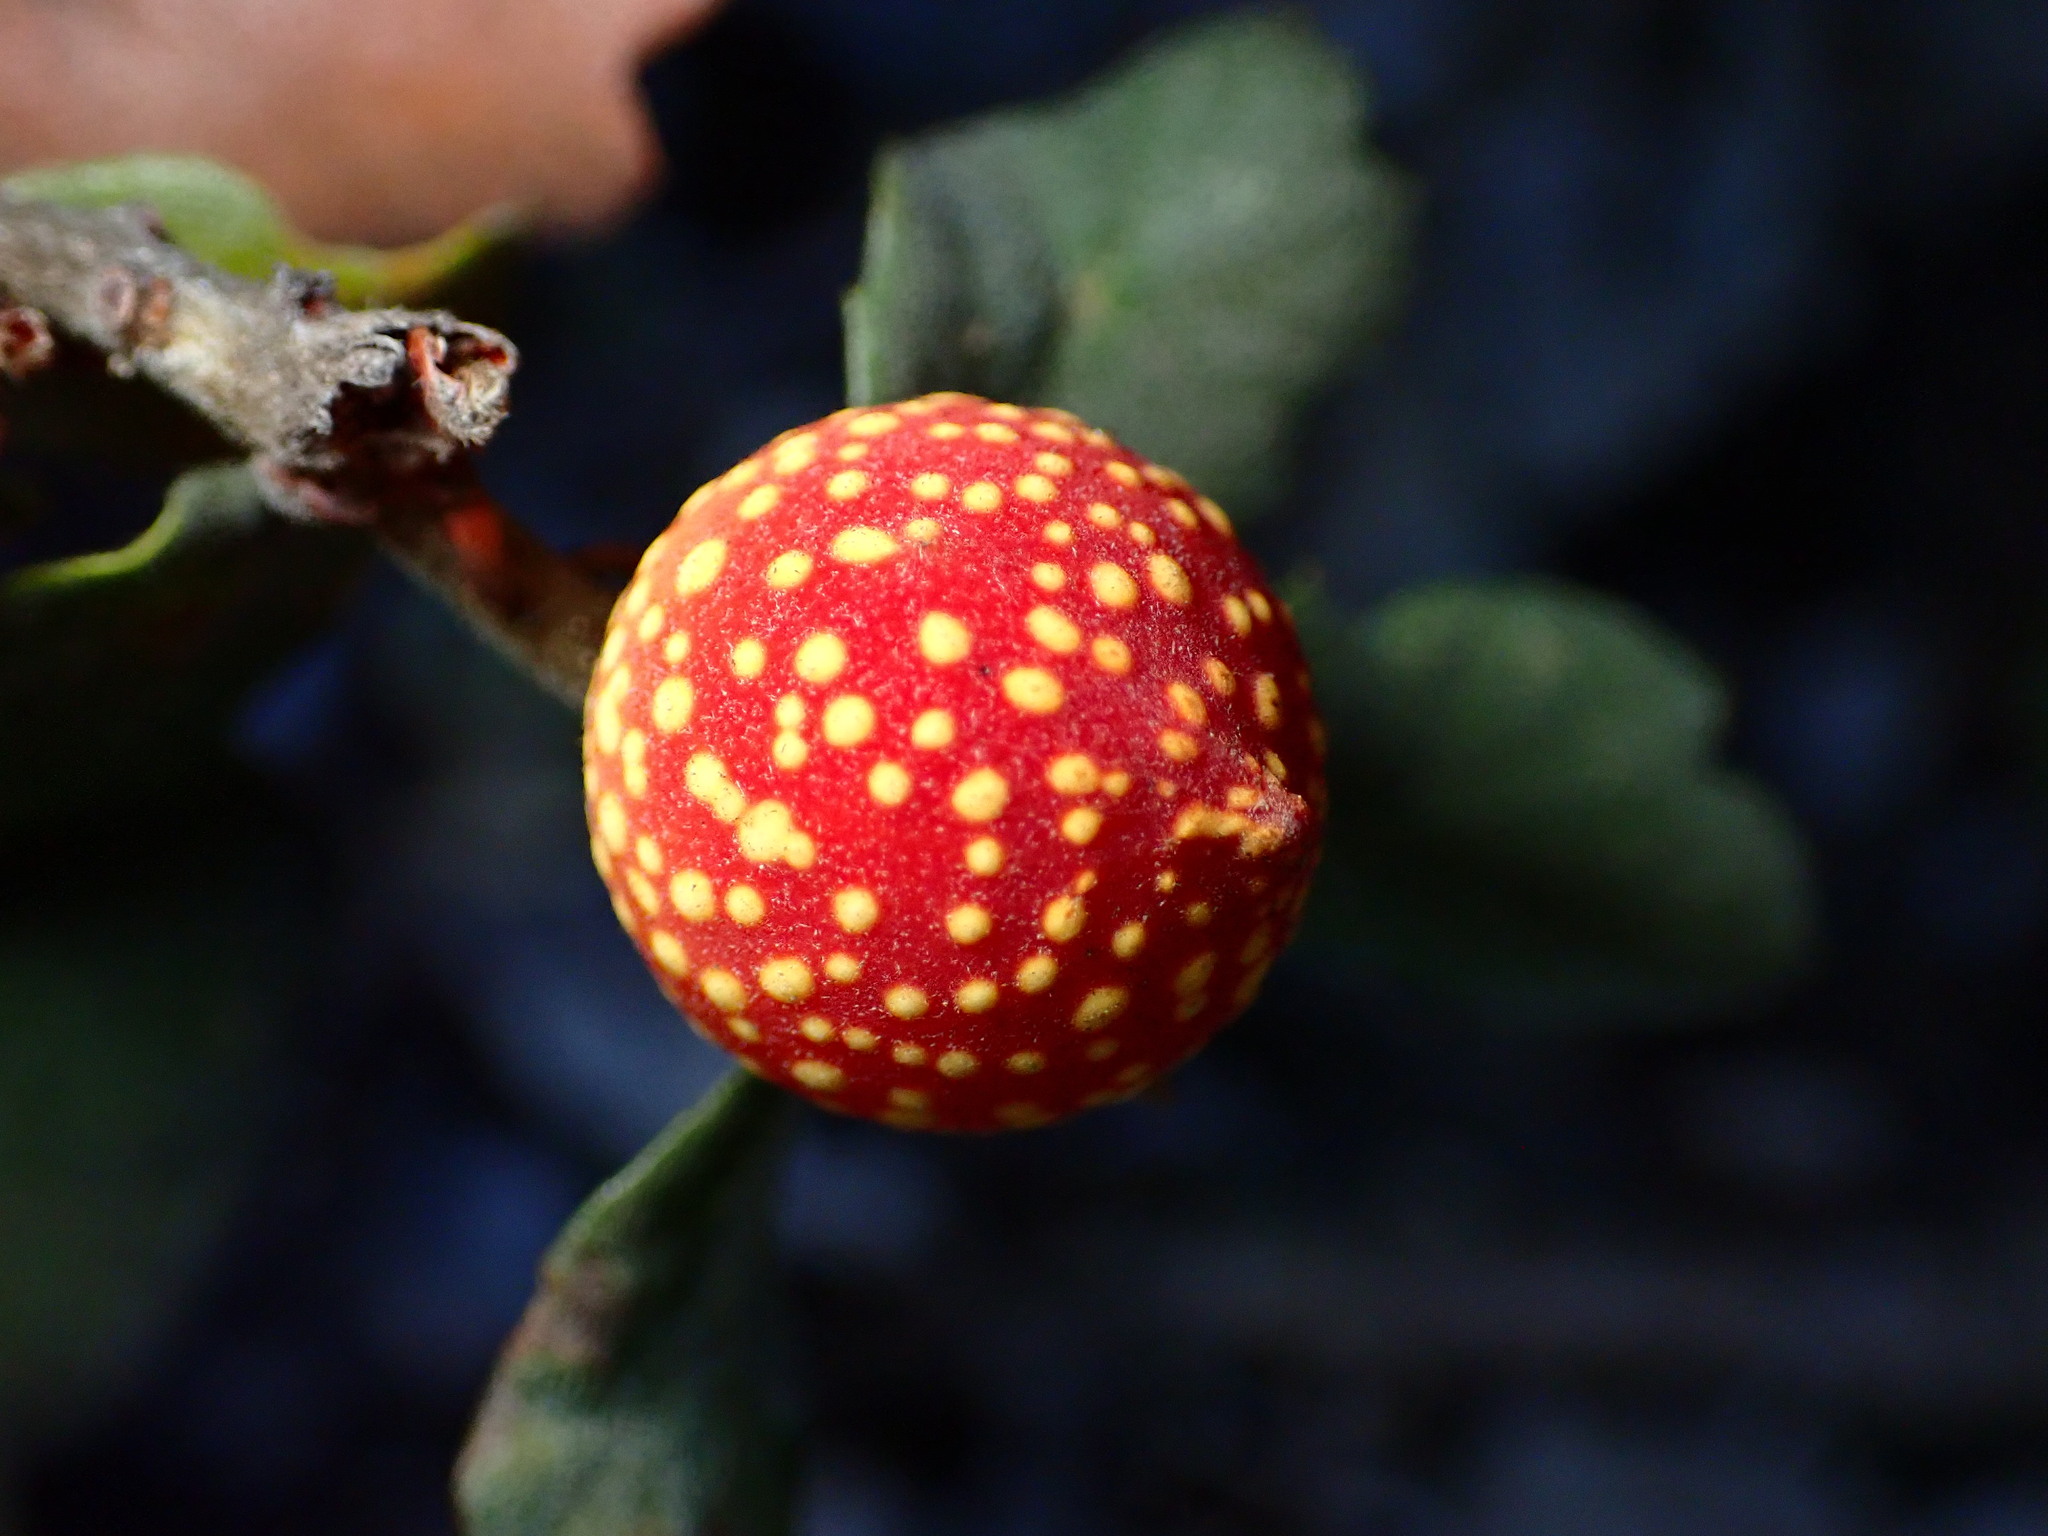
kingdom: Animalia
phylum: Arthropoda
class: Insecta
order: Hymenoptera
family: Cynipidae
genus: Burnettweldia
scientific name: Burnettweldia
